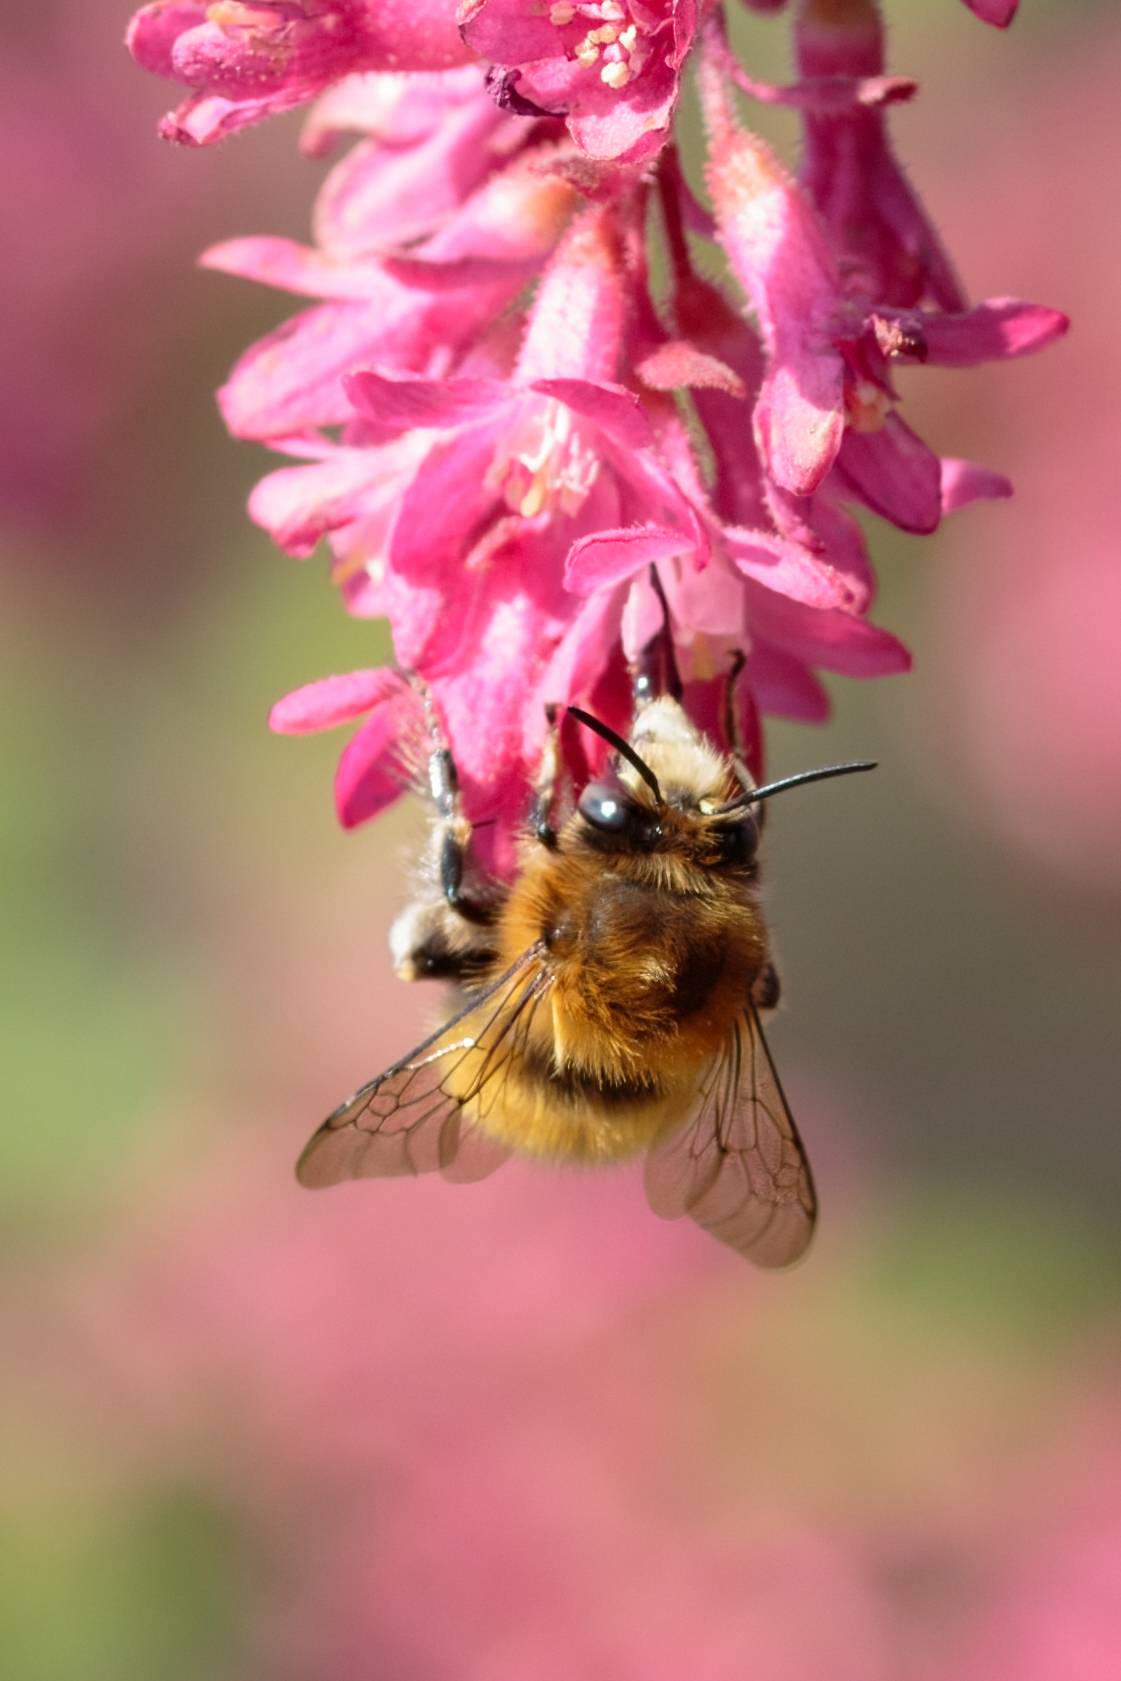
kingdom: Animalia
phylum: Arthropoda
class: Insecta
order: Hymenoptera
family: Apidae
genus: Anthophora
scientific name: Anthophora plumipes
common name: Hairy-footed flower bee
